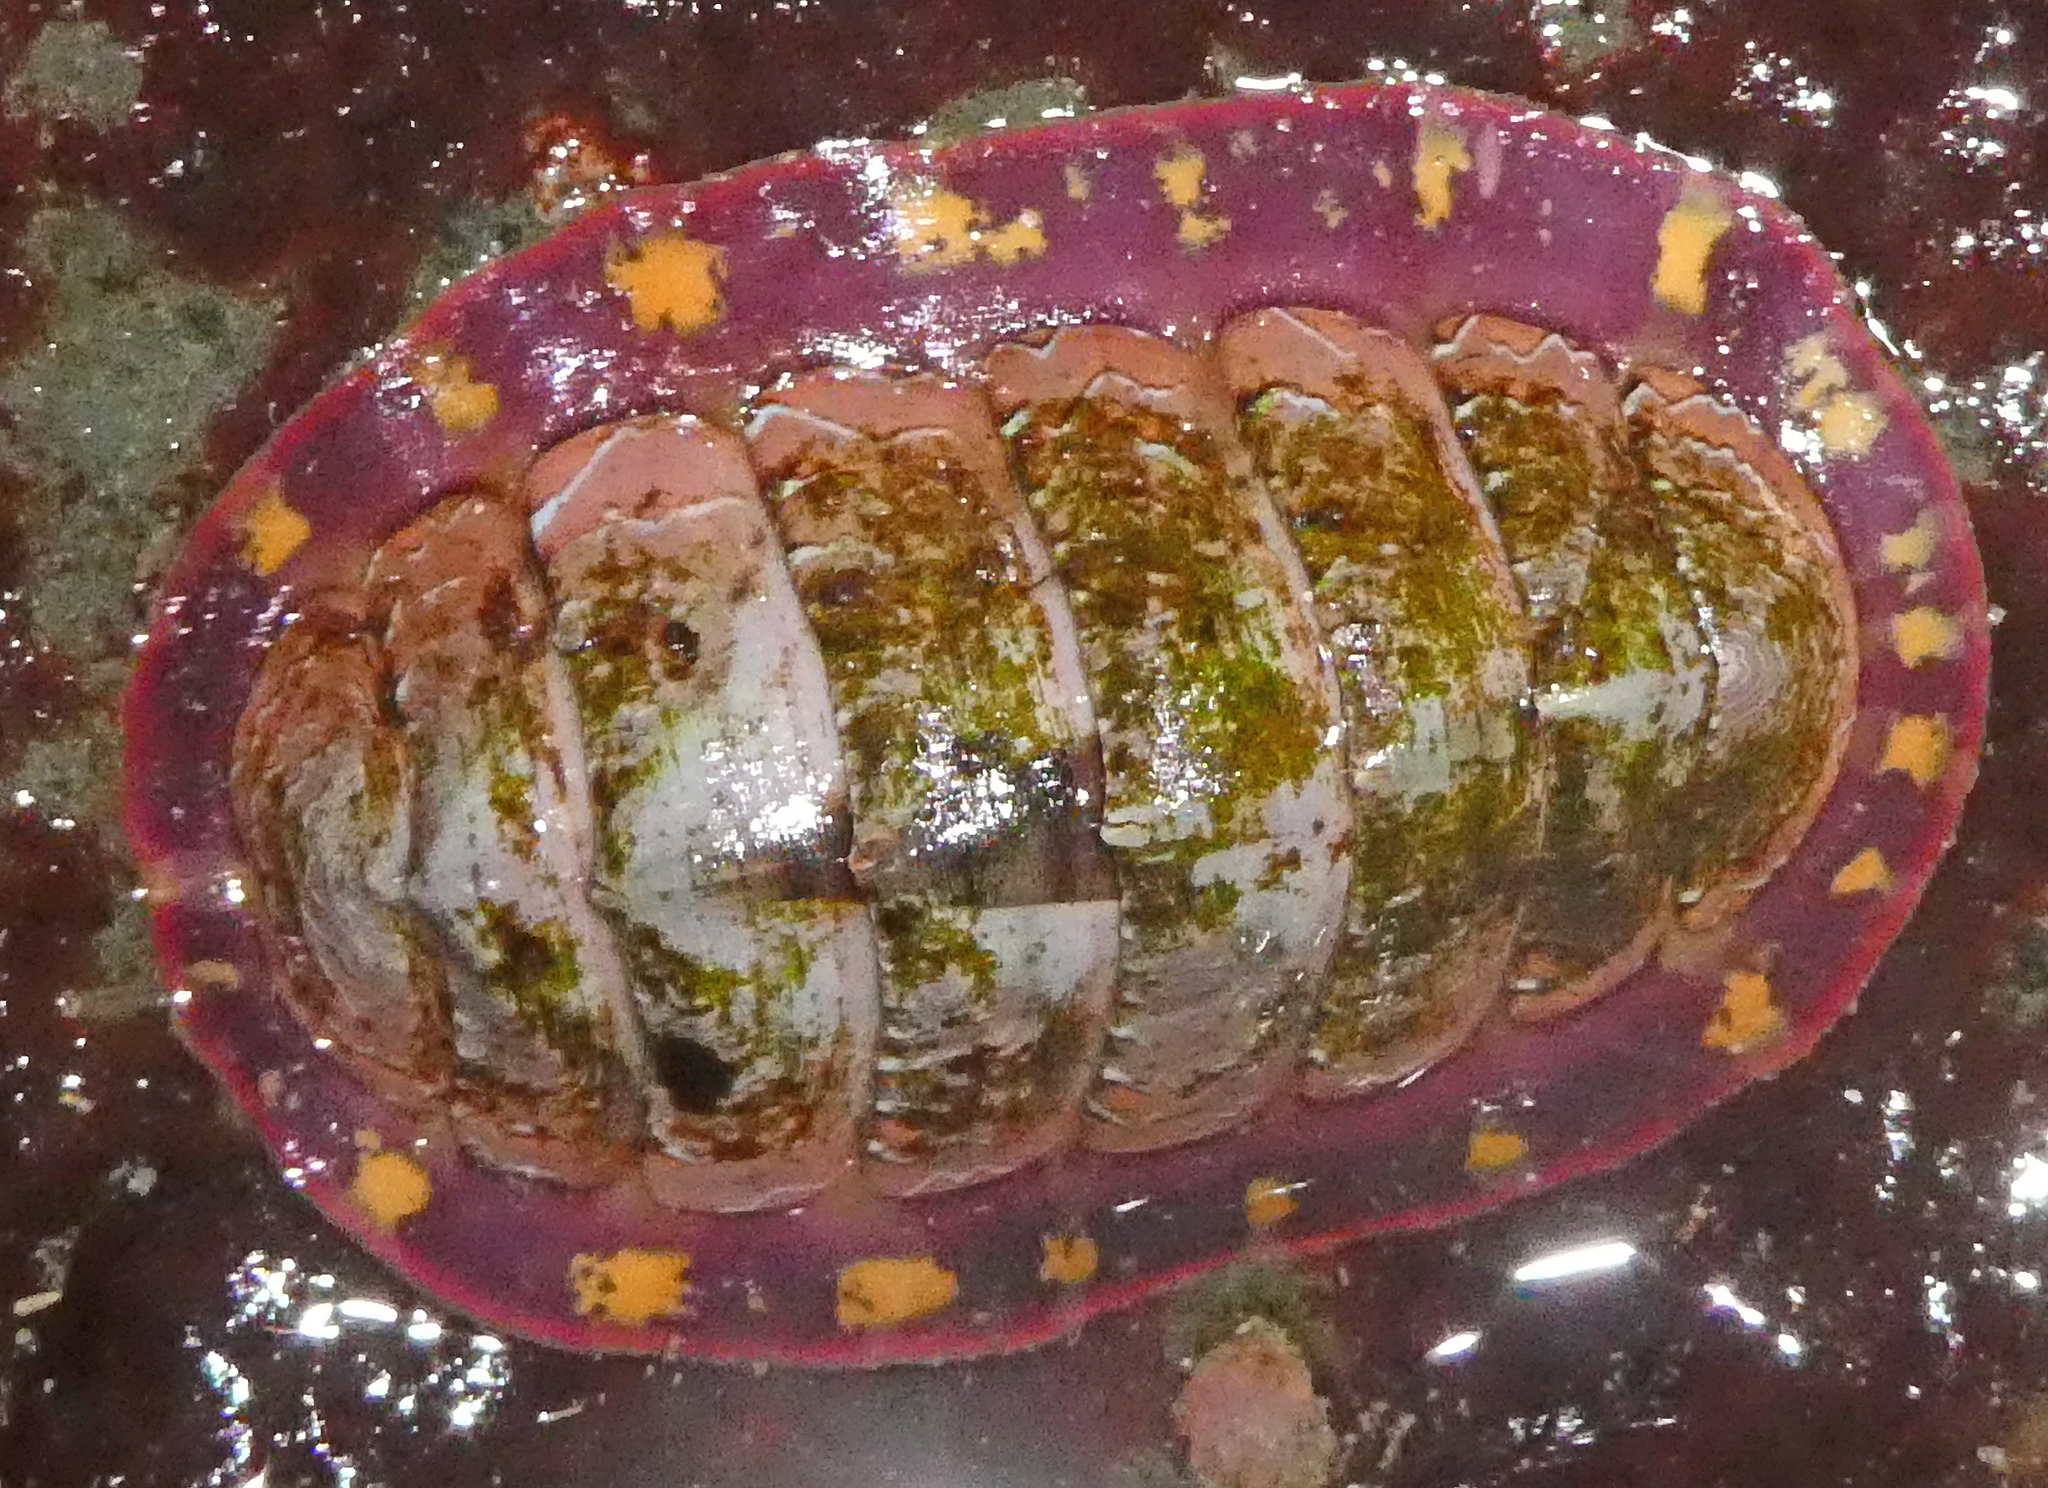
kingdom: Animalia
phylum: Mollusca
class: Polyplacophora
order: Chitonida
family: Tonicellidae
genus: Tonicella
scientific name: Tonicella lineata
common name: Lined chiton
